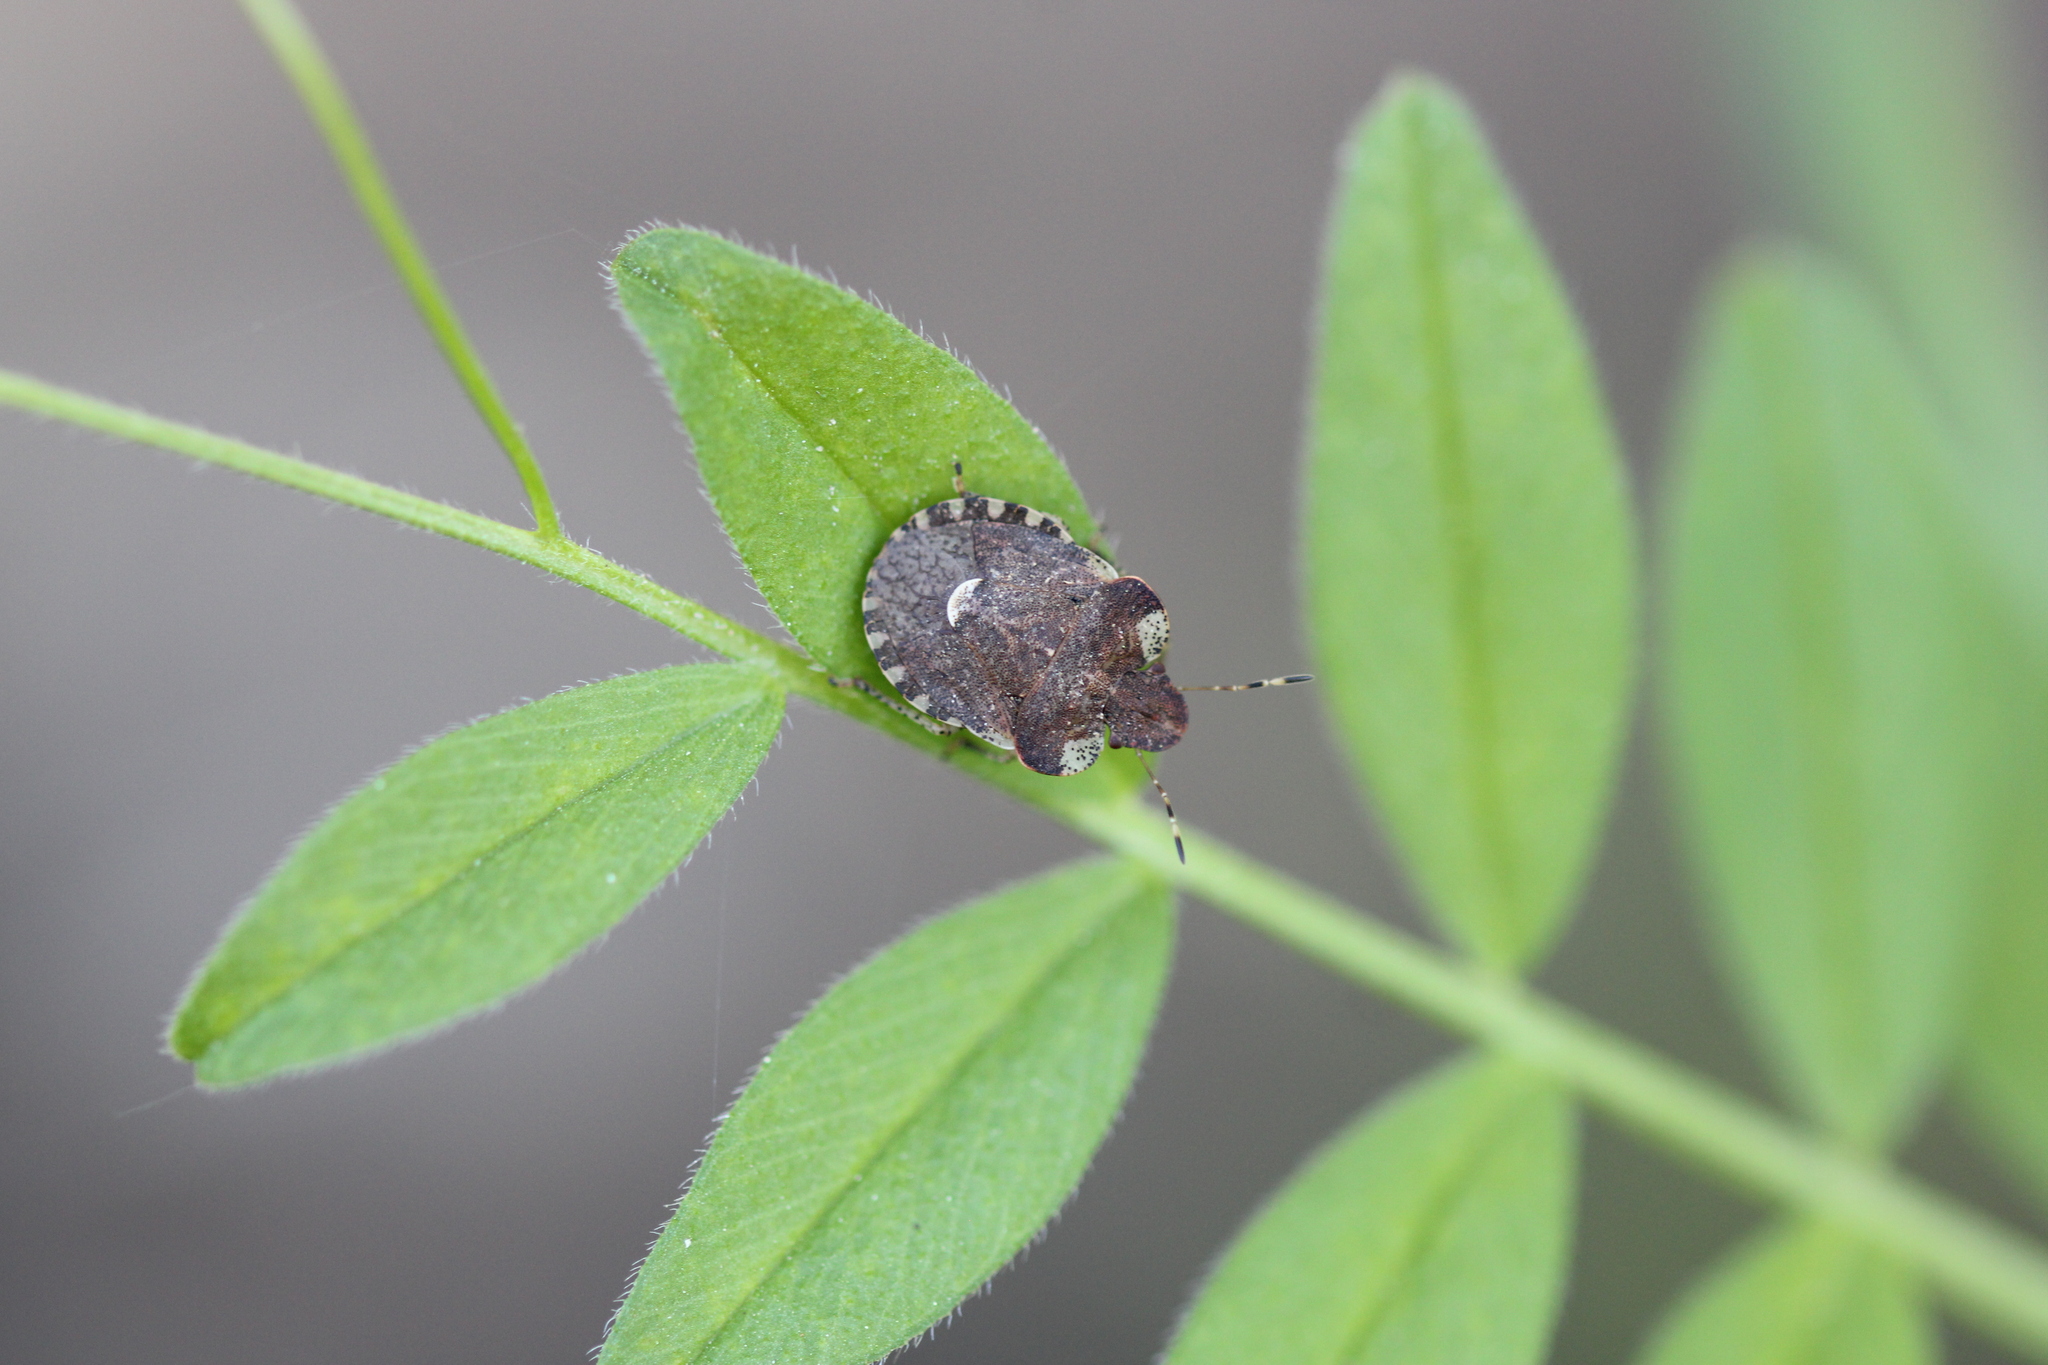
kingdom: Animalia
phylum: Arthropoda
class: Insecta
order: Hemiptera
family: Pentatomidae
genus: Dyroderes
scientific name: Dyroderes umbraculatus
